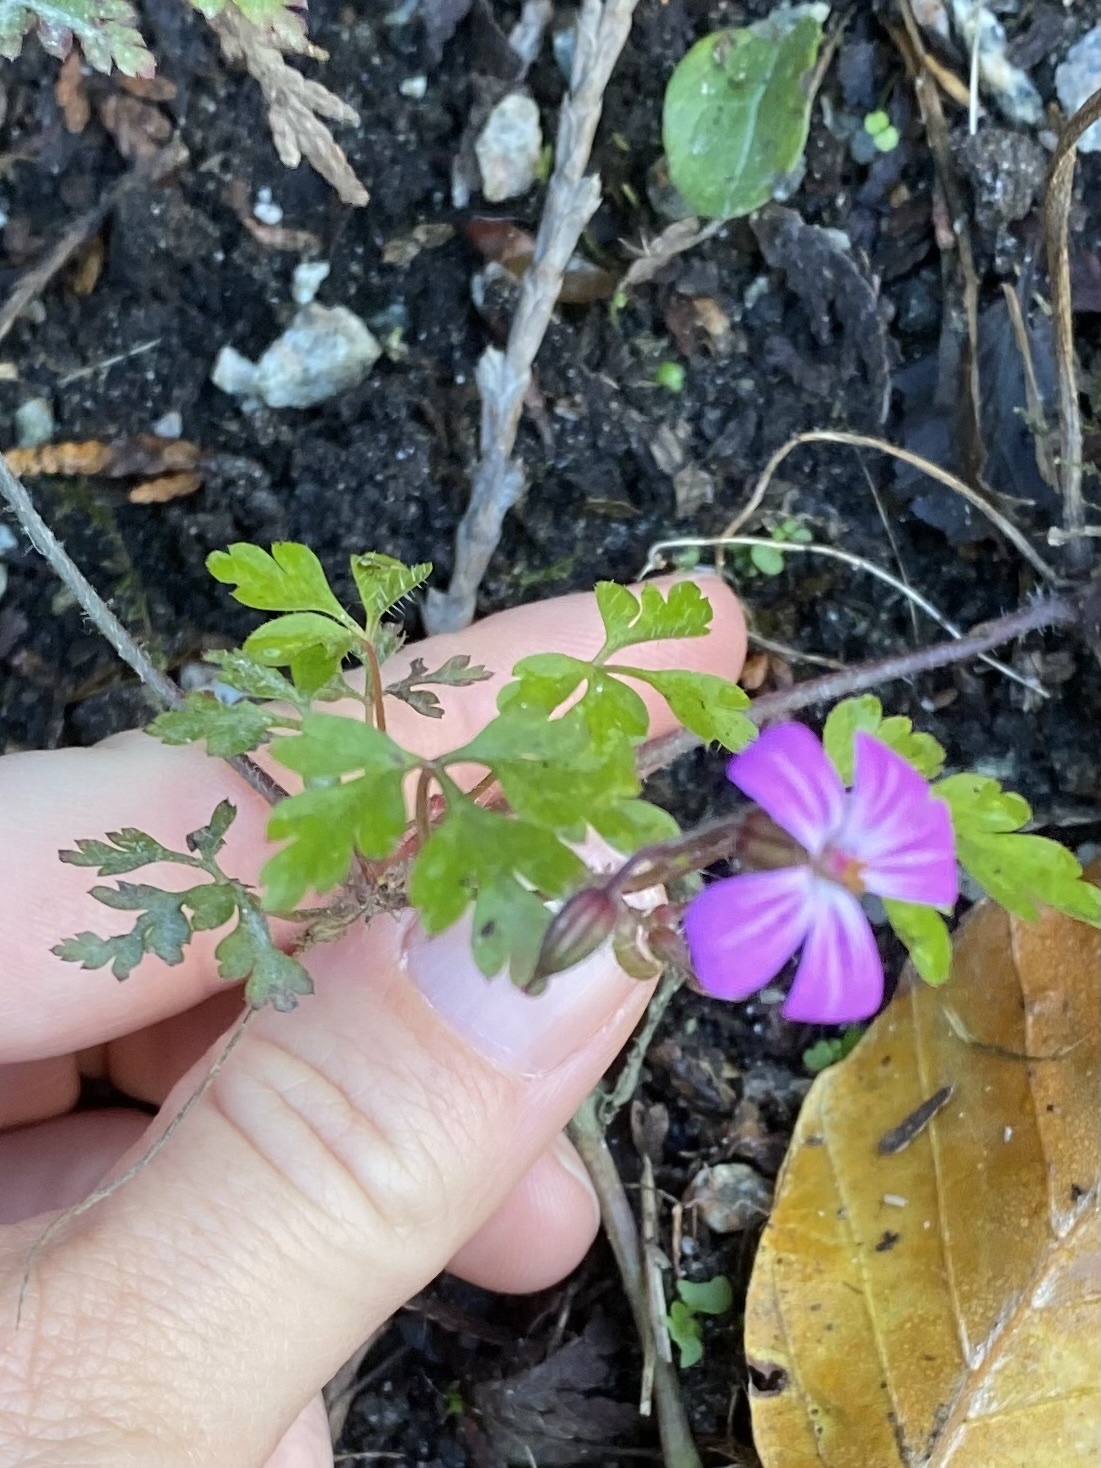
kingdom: Plantae
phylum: Tracheophyta
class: Magnoliopsida
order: Geraniales
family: Geraniaceae
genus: Geranium
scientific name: Geranium robertianum
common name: Herb-robert
